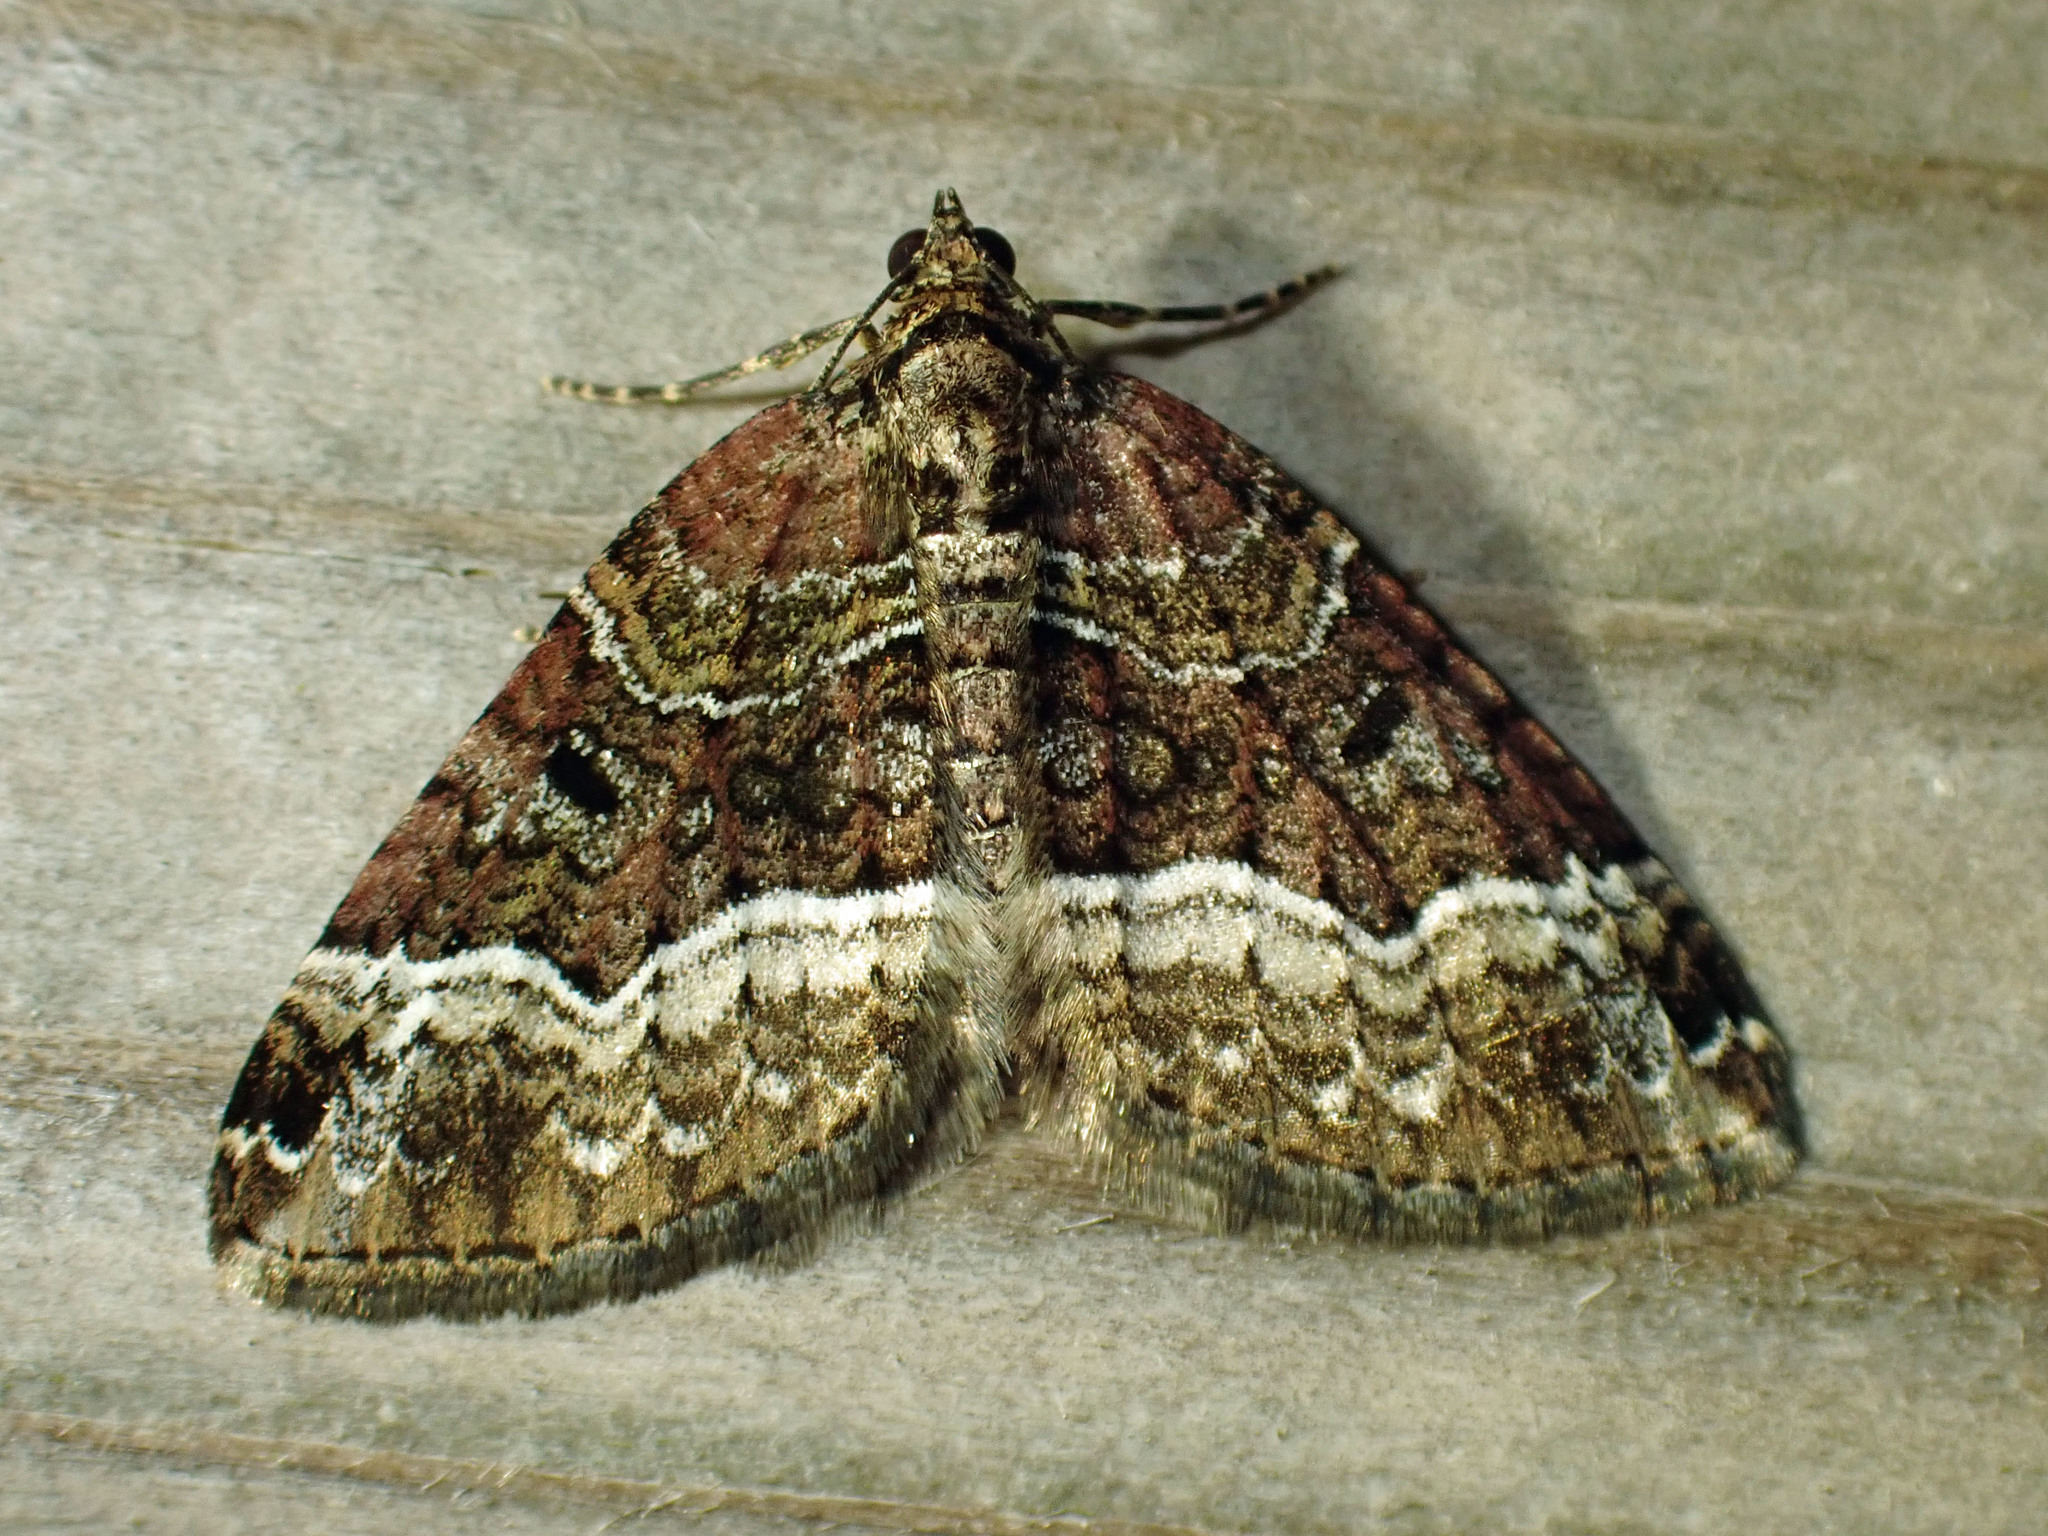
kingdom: Animalia
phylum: Arthropoda
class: Insecta
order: Lepidoptera
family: Geometridae
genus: Euphyia
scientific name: Euphyia intermediata
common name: Sharp-angled carpet
